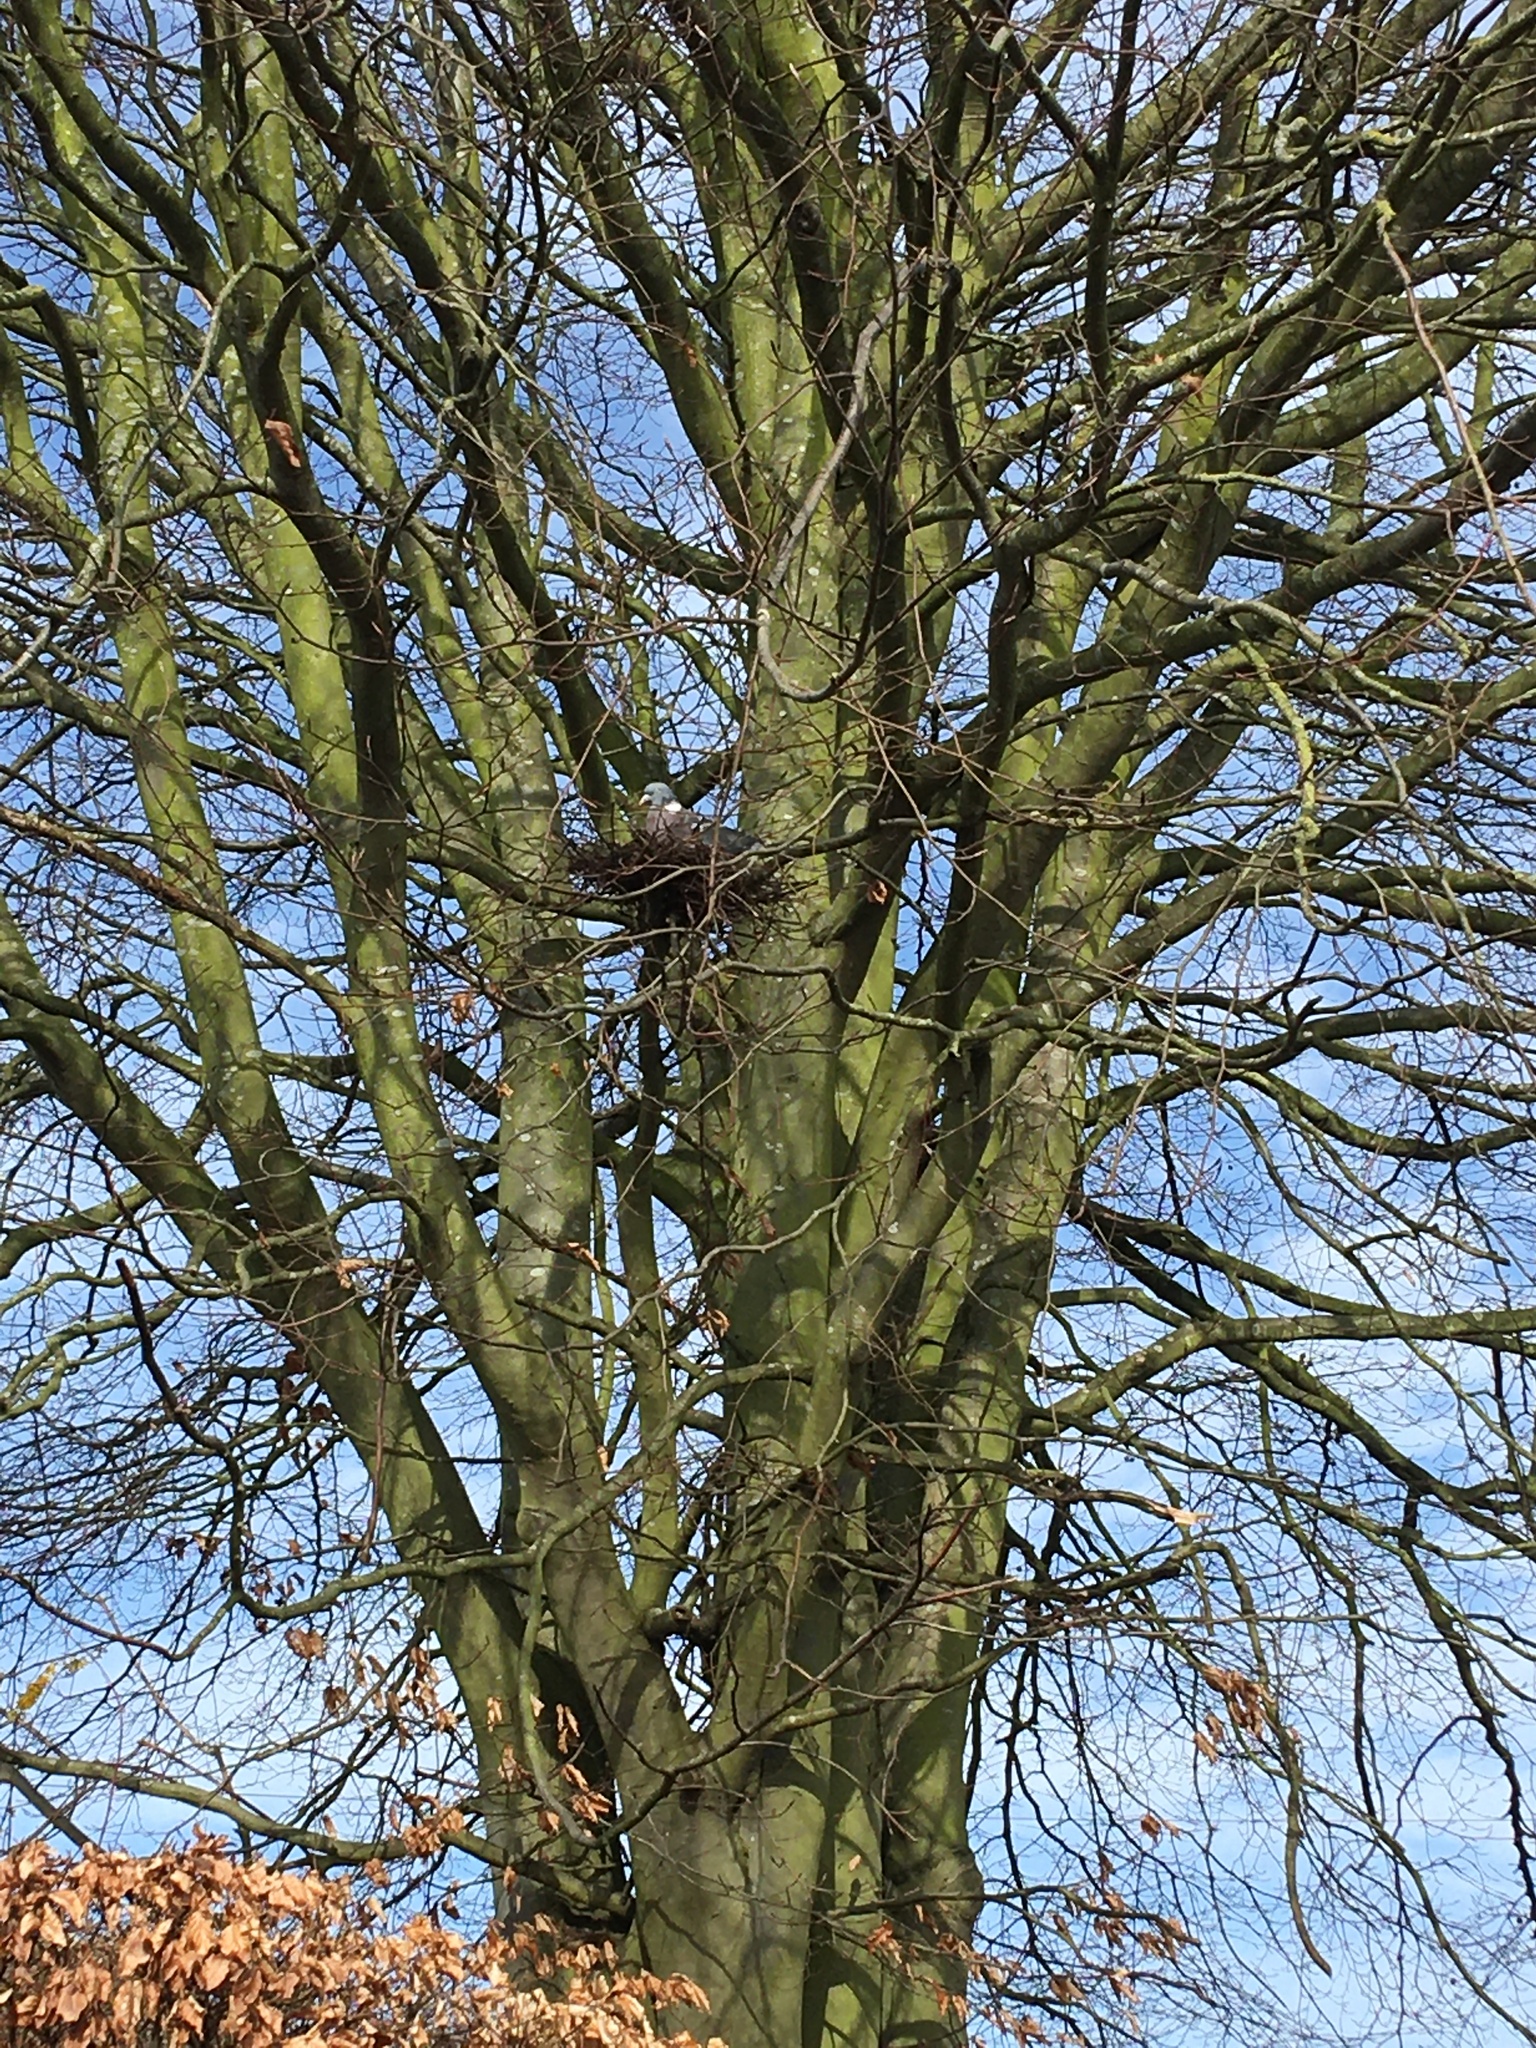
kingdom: Animalia
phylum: Chordata
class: Aves
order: Columbiformes
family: Columbidae
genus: Columba
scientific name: Columba palumbus
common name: Common wood pigeon
